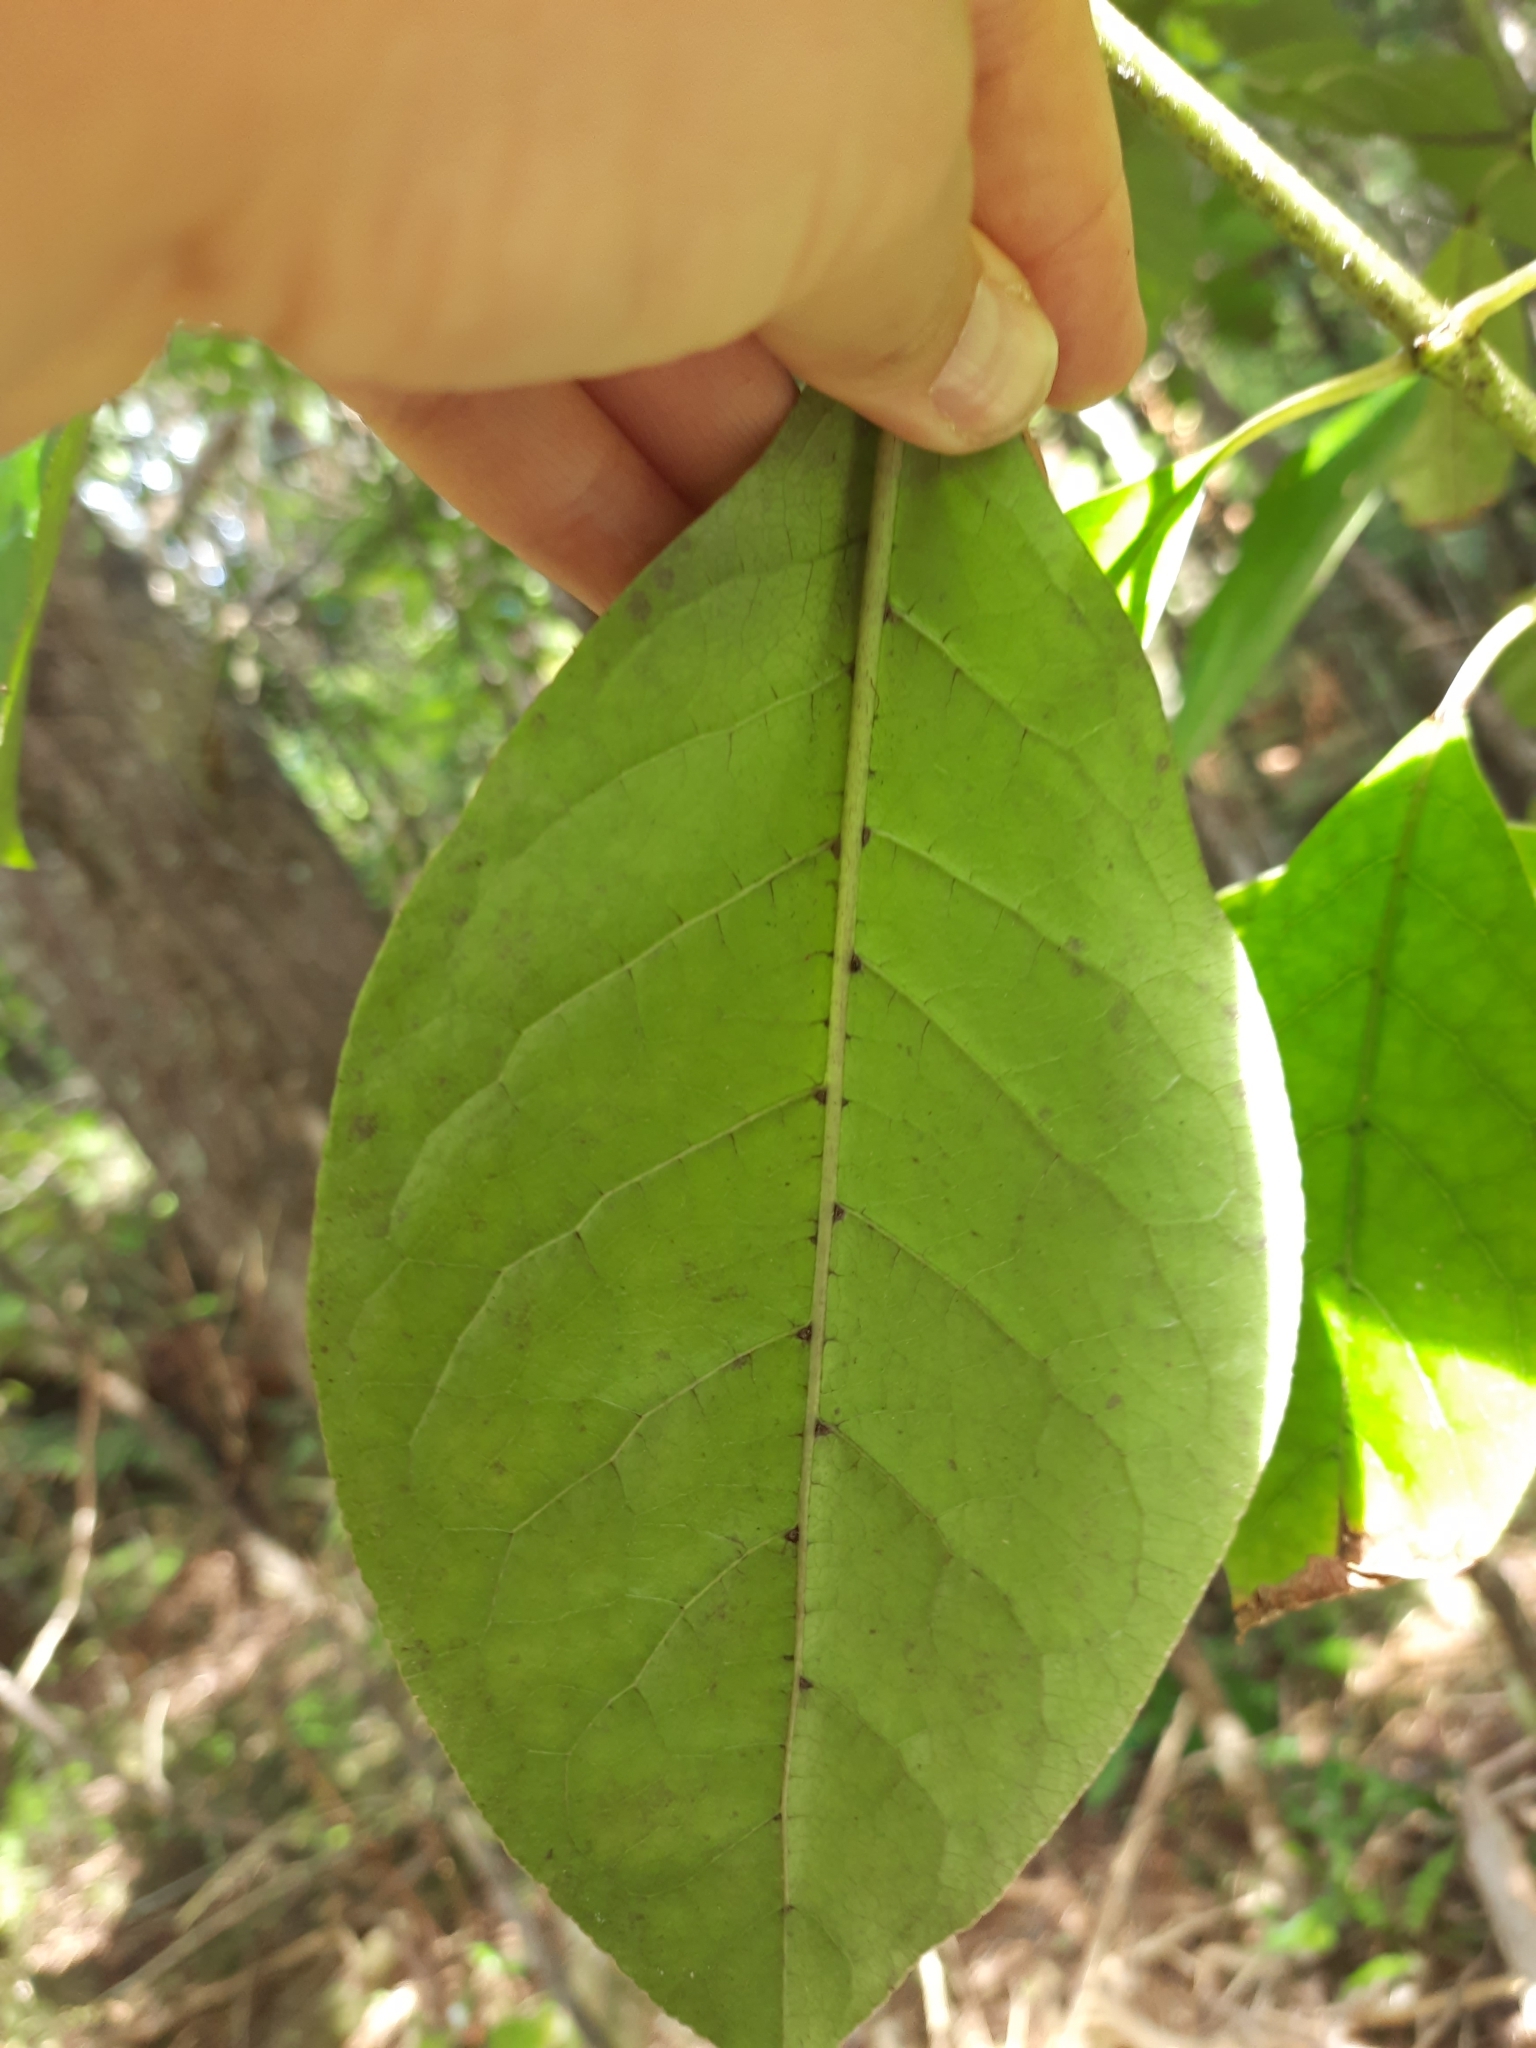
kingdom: Plantae
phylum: Tracheophyta
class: Magnoliopsida
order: Gentianales
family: Rubiaceae
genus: Coprosma
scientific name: Coprosma autumnalis
